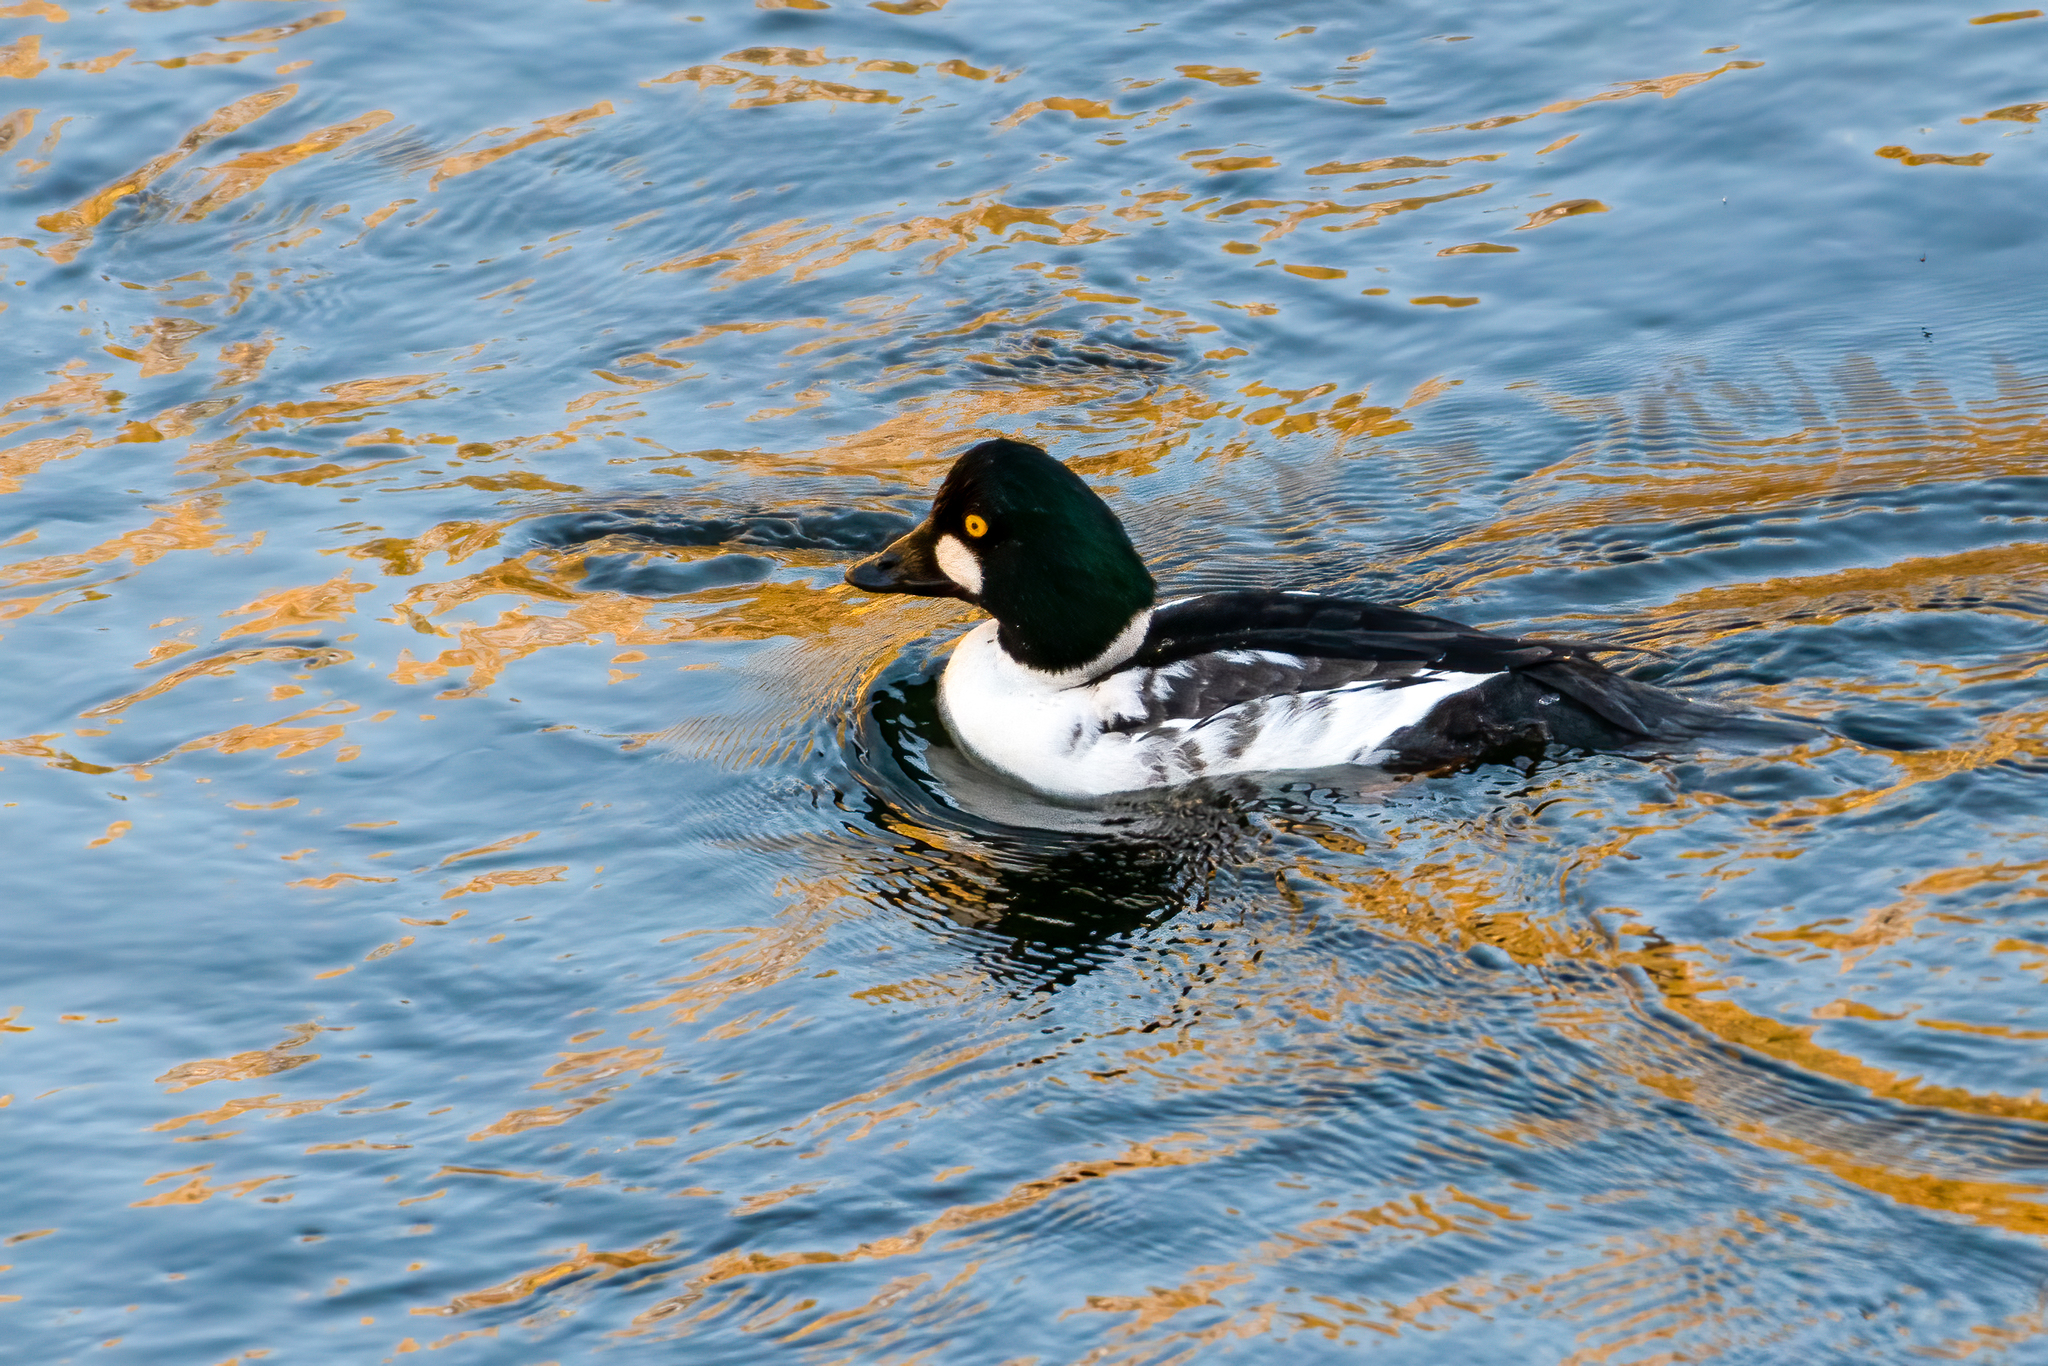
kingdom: Animalia
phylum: Chordata
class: Aves
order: Anseriformes
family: Anatidae
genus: Bucephala
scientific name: Bucephala clangula
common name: Common goldeneye
